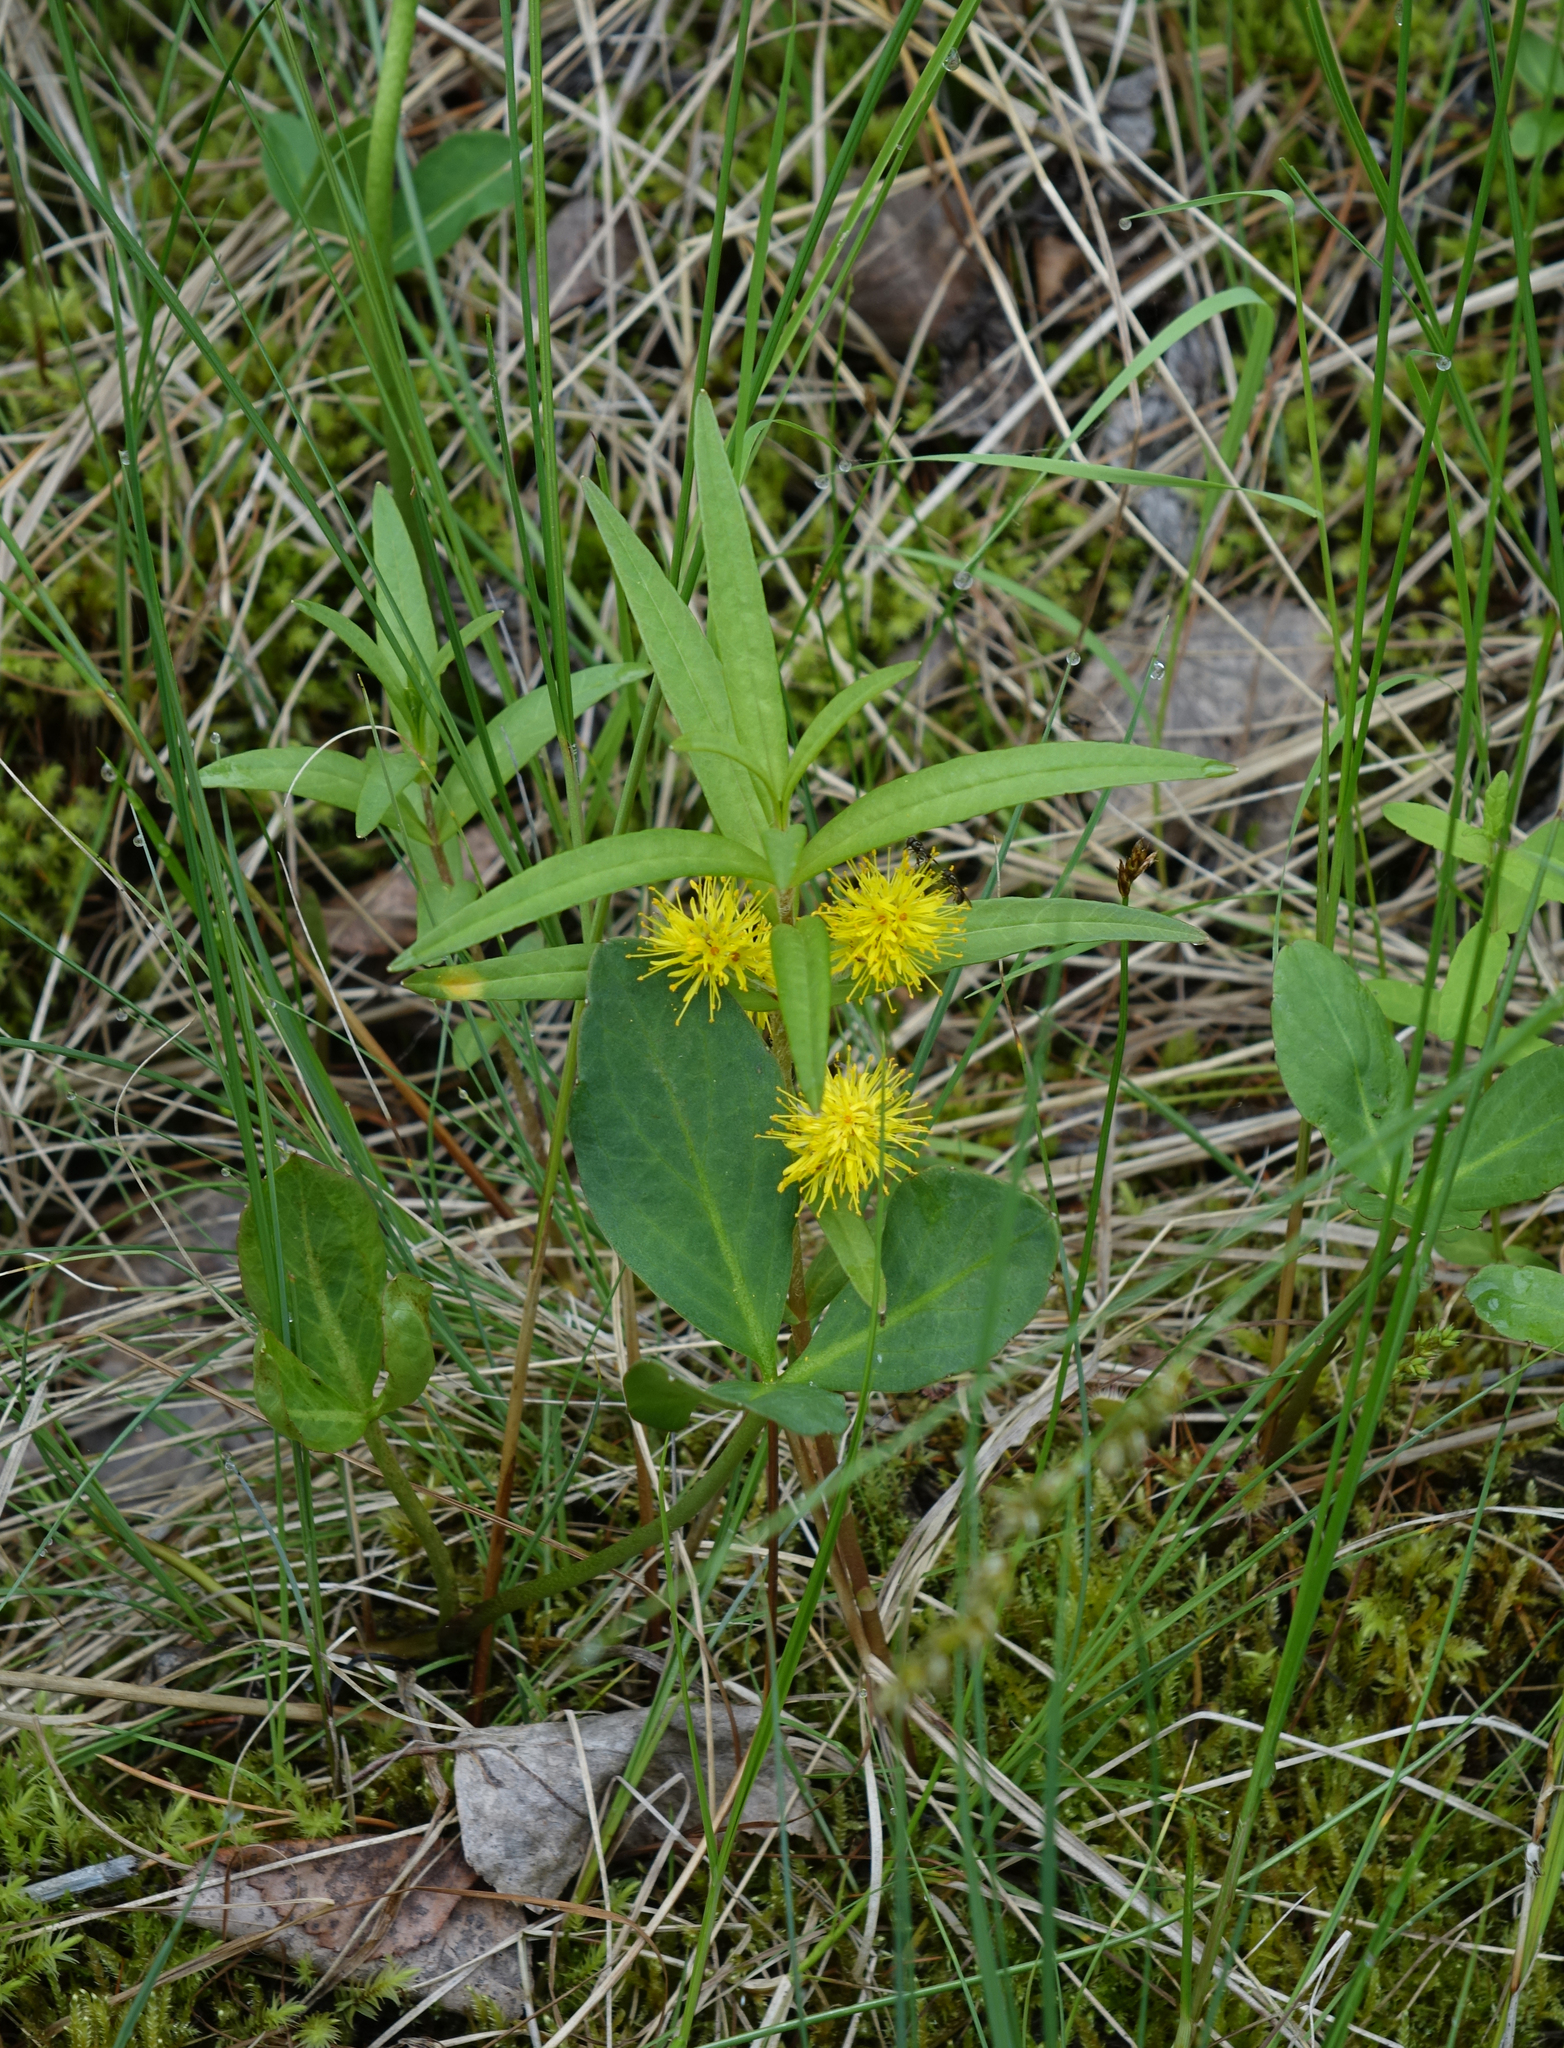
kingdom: Plantae
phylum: Tracheophyta
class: Magnoliopsida
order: Ericales
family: Primulaceae
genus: Lysimachia
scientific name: Lysimachia thyrsiflora
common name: Tufted loosestrife
